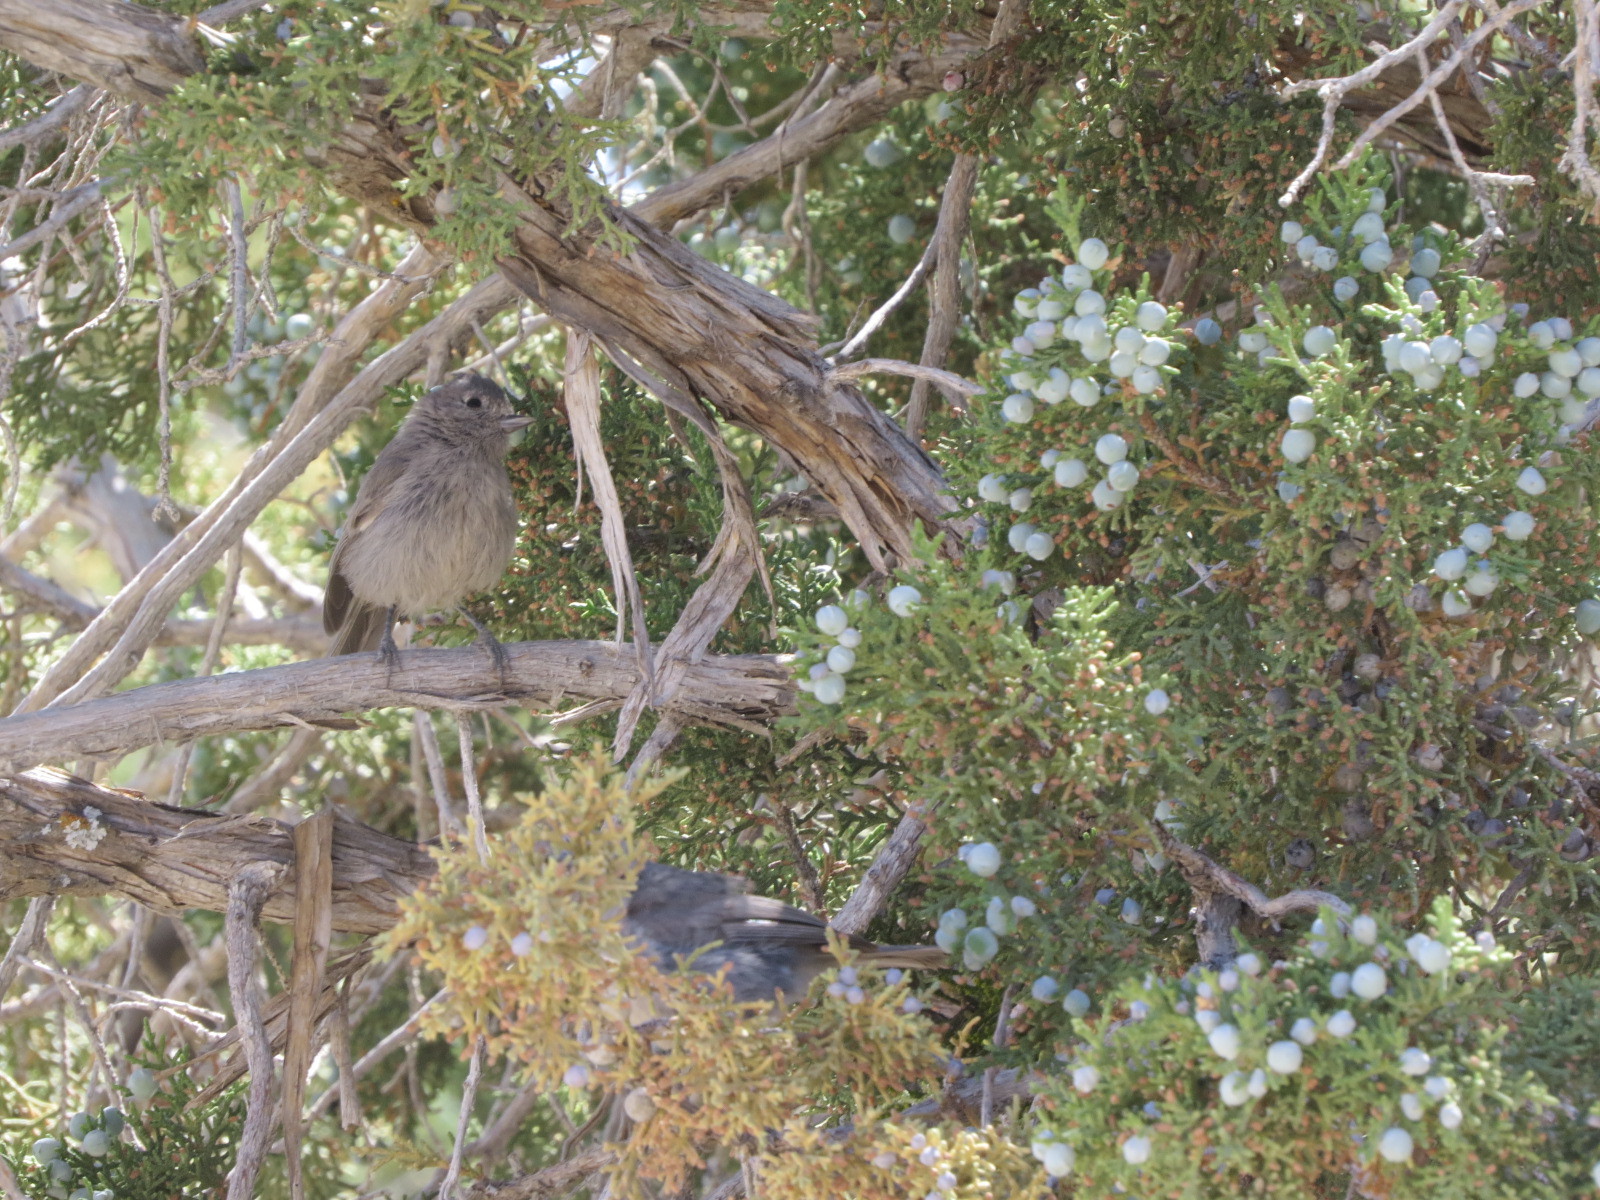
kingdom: Animalia
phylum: Chordata
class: Aves
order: Passeriformes
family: Paridae
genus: Baeolophus
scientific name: Baeolophus ridgwayi
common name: Juniper titmouse
